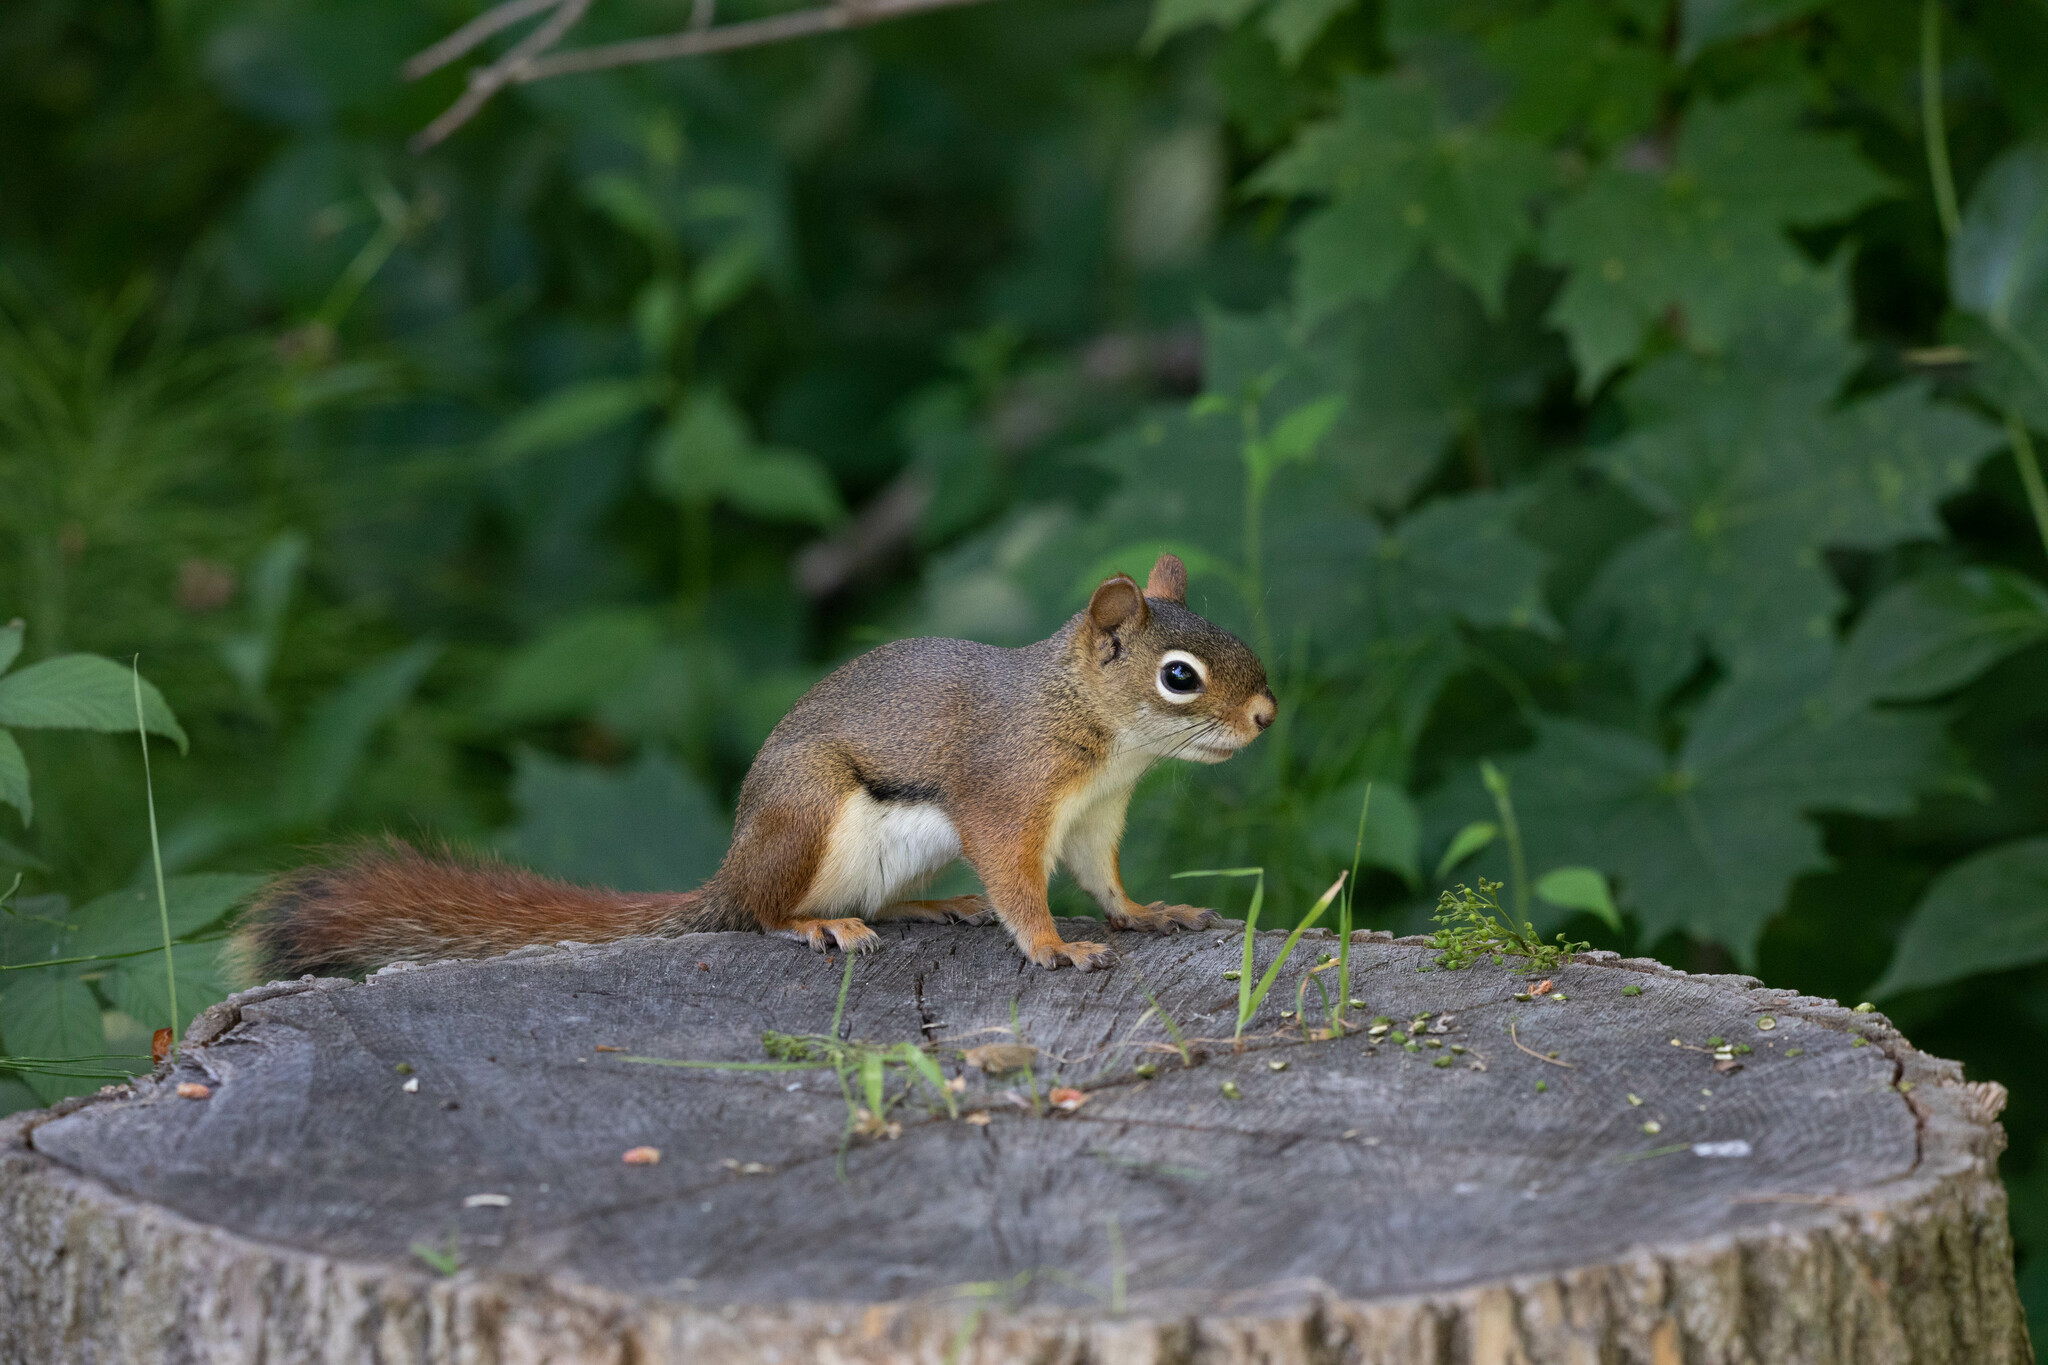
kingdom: Animalia
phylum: Chordata
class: Mammalia
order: Rodentia
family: Sciuridae
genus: Tamiasciurus
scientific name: Tamiasciurus hudsonicus
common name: Red squirrel
